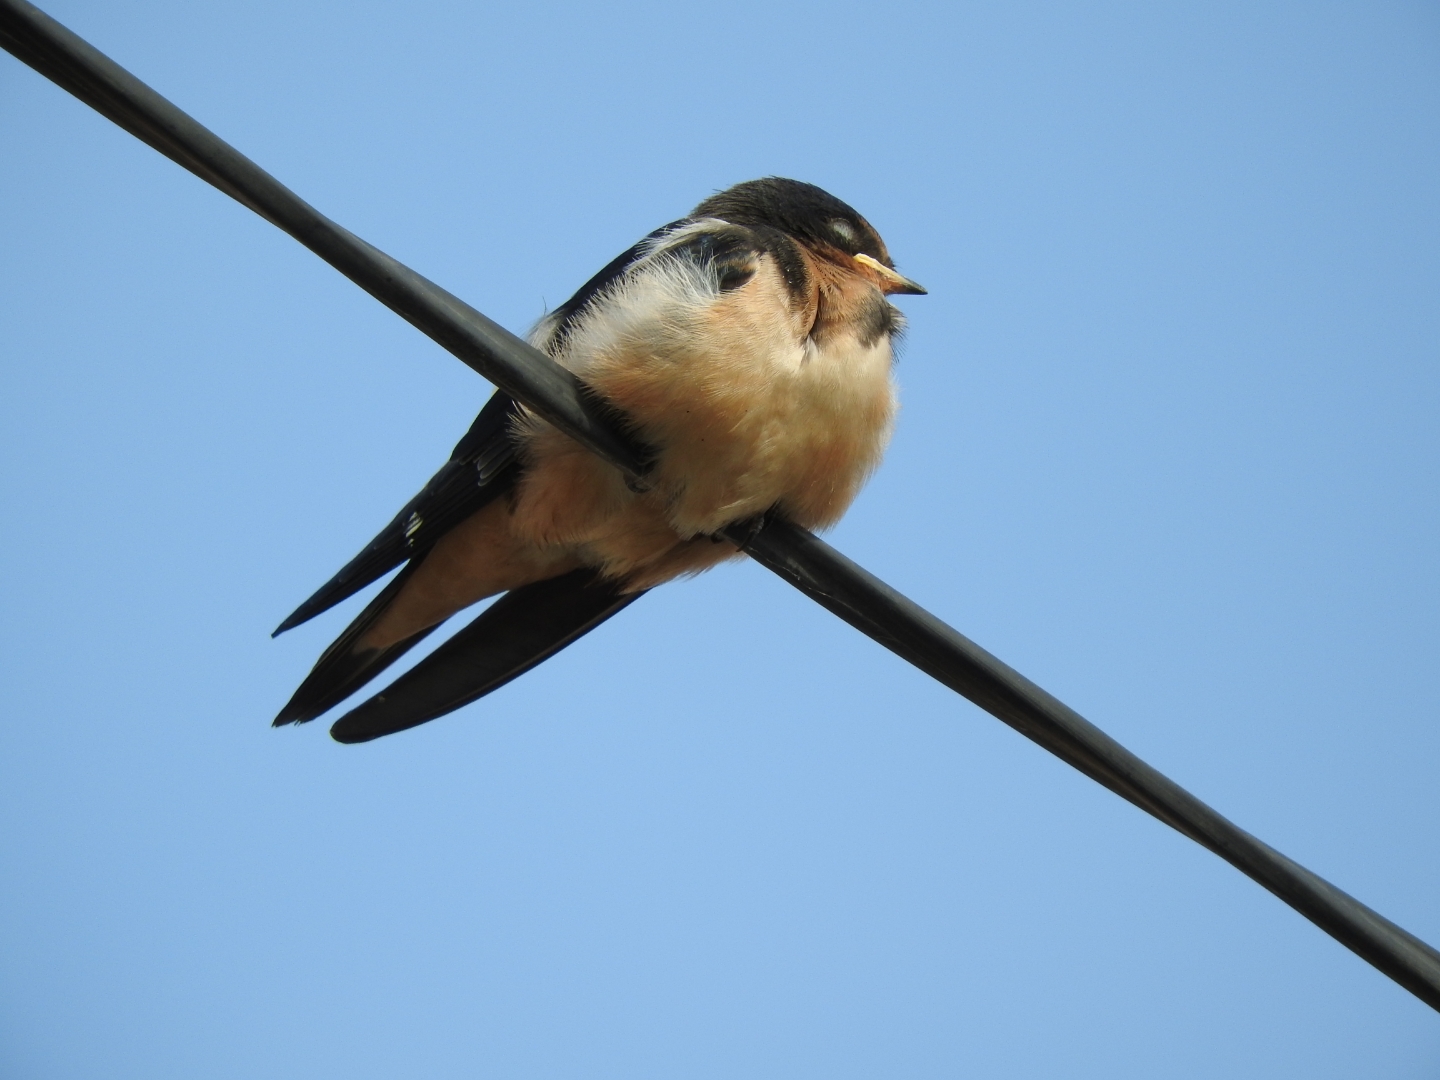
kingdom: Animalia
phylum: Chordata
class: Aves
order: Passeriformes
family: Hirundinidae
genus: Hirundo
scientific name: Hirundo rustica
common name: Barn swallow
